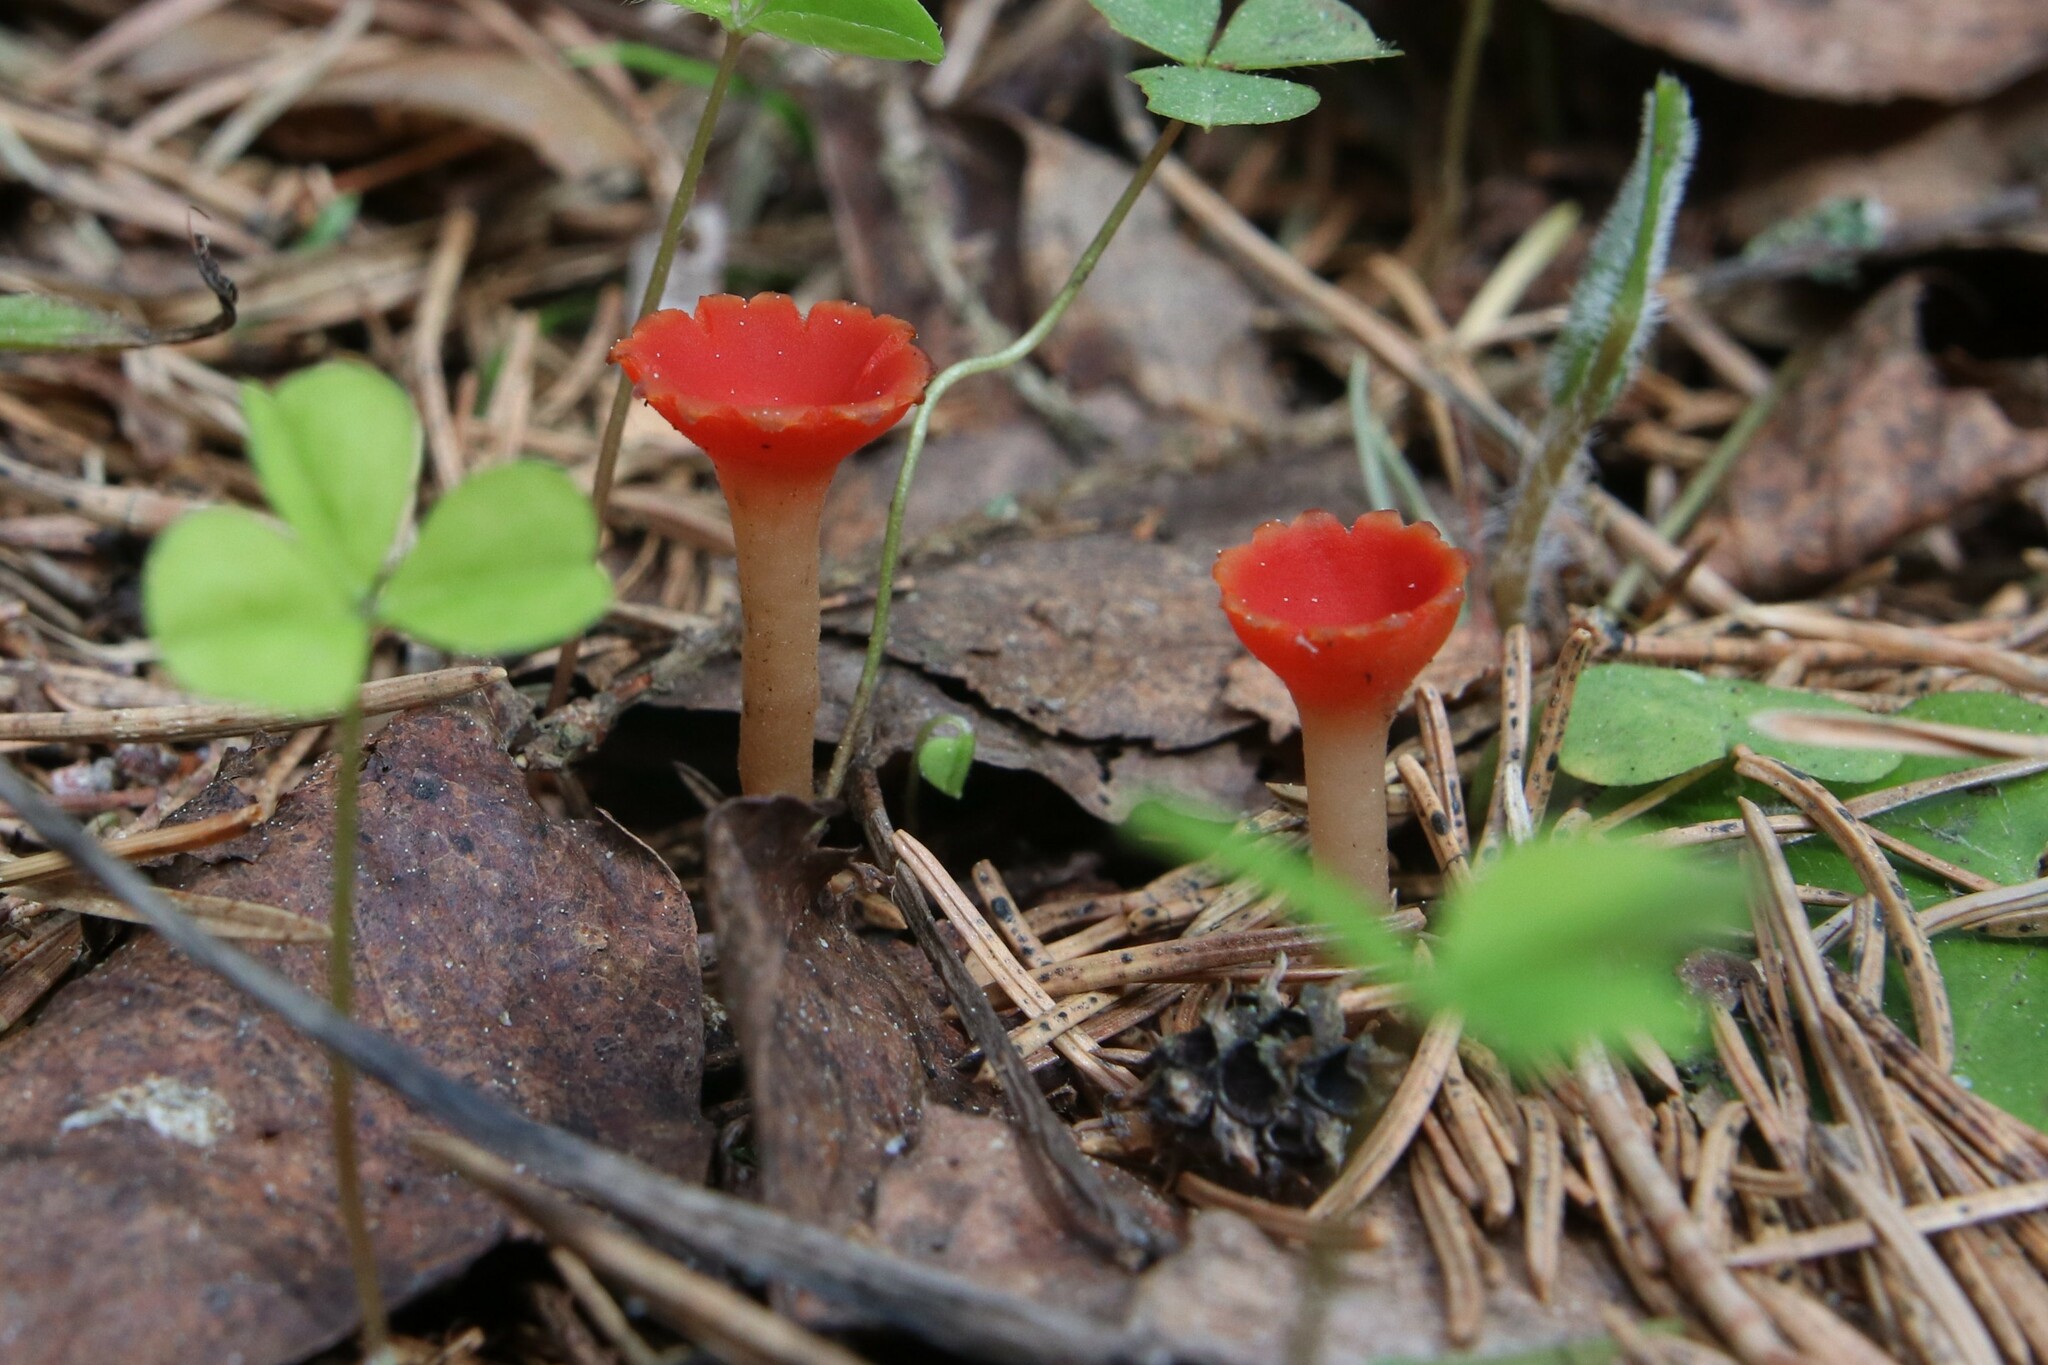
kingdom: Fungi
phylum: Ascomycota
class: Pezizomycetes
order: Pezizales
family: Sarcoscyphaceae
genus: Microstoma
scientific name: Microstoma protractum
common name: Rosy goblet
